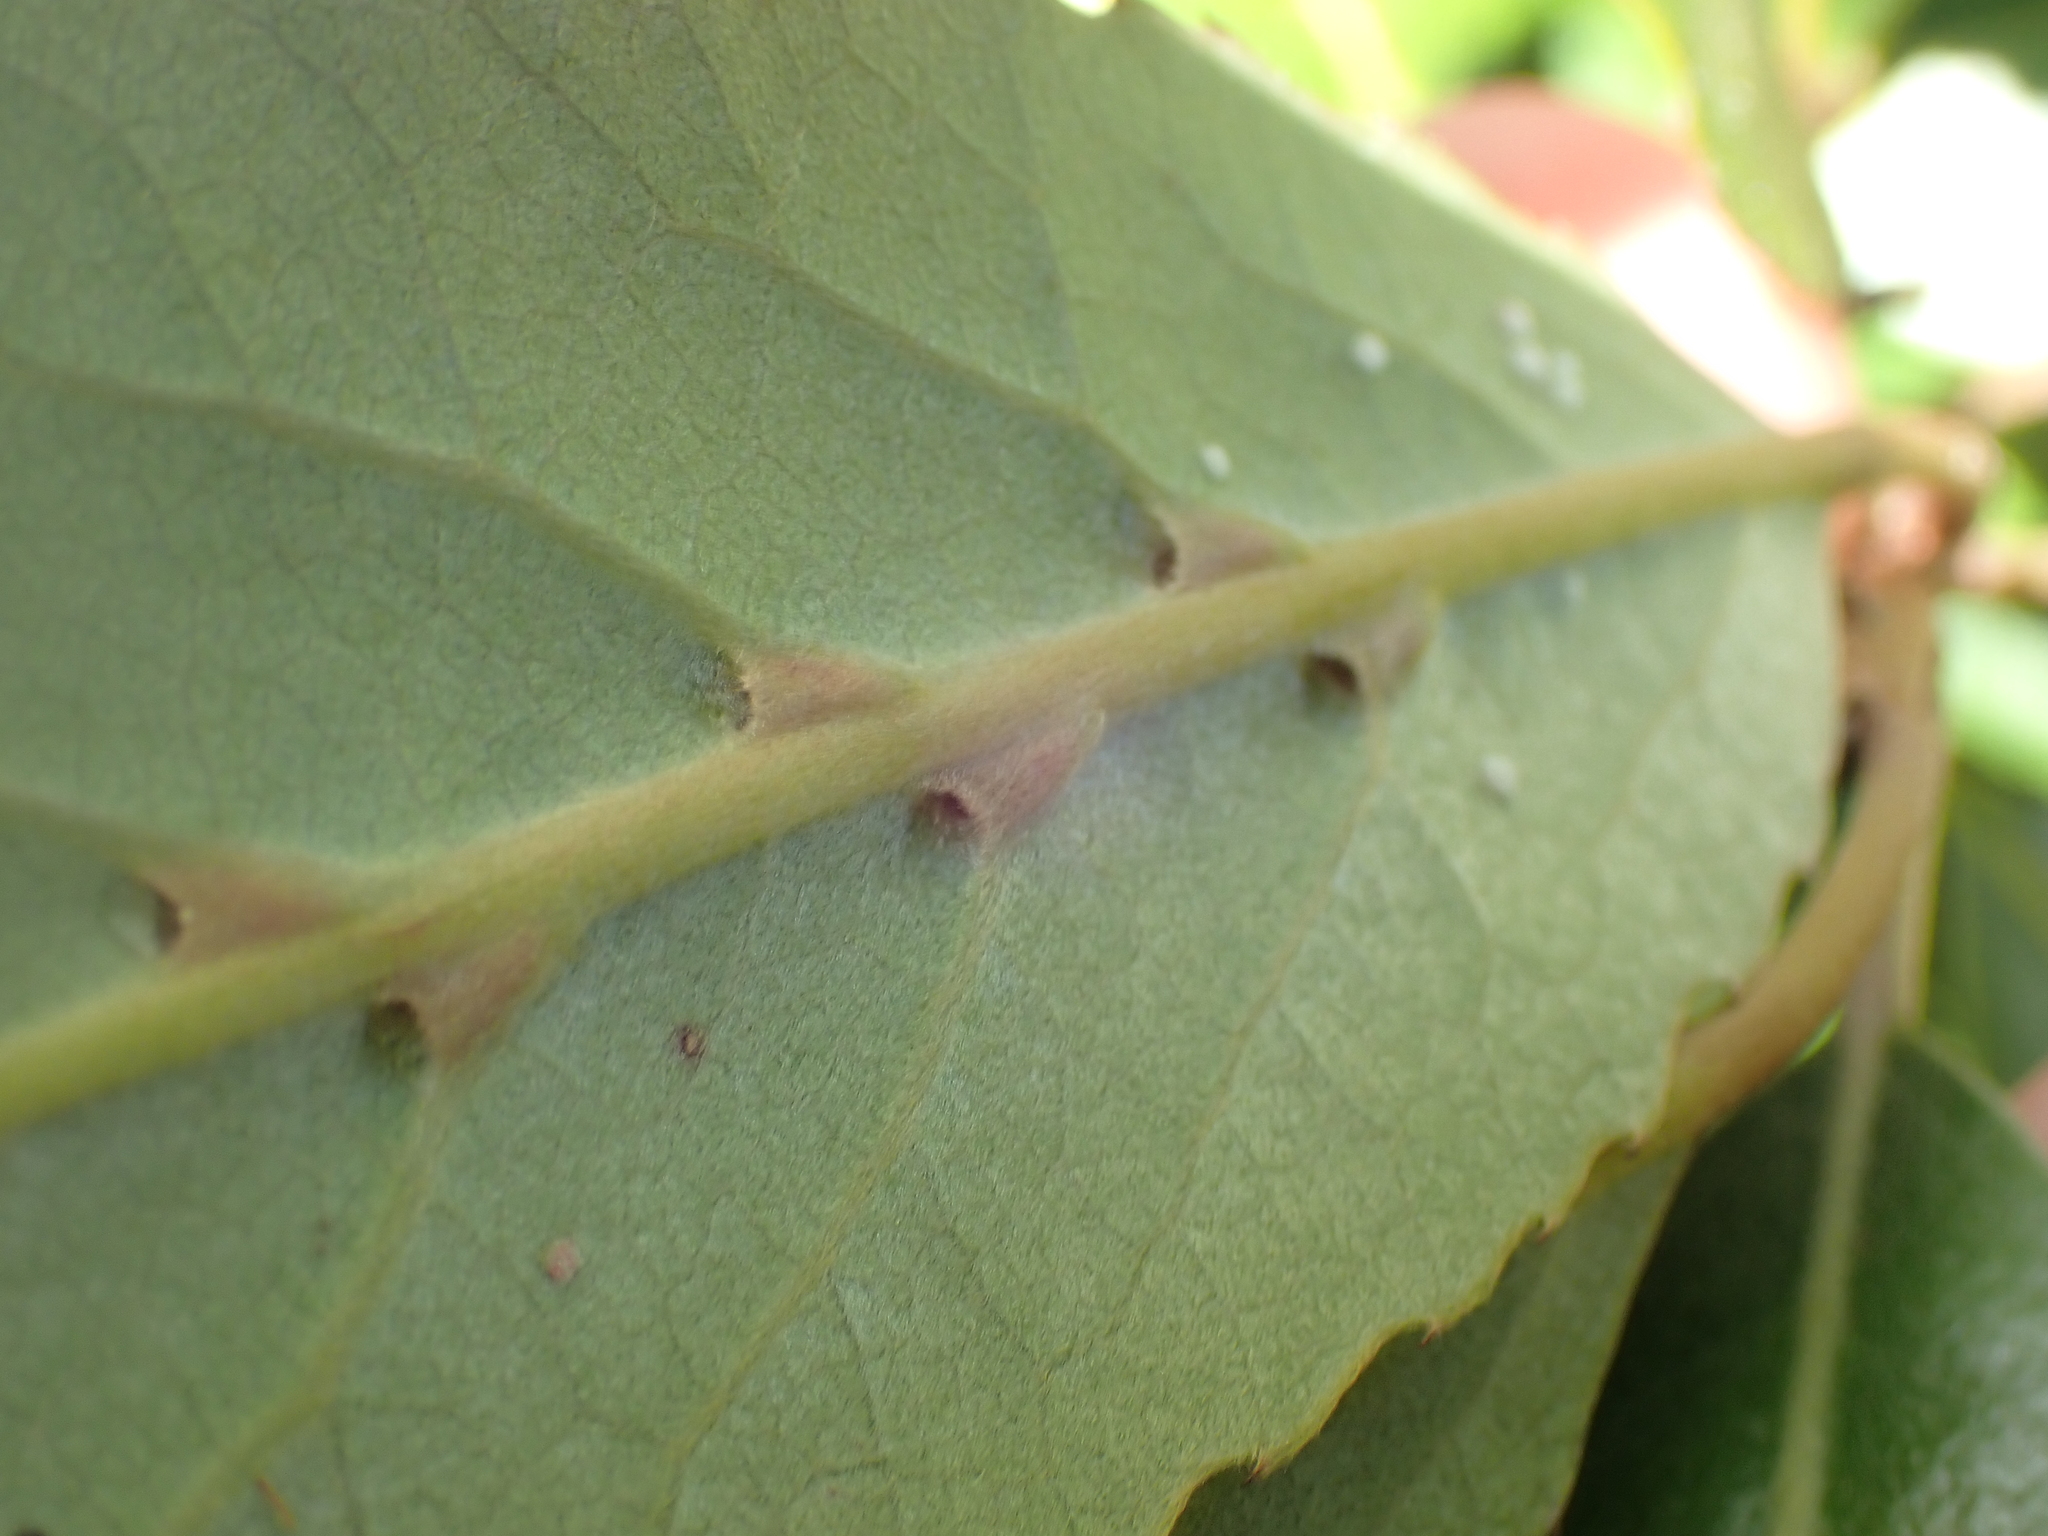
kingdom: Plantae
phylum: Tracheophyta
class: Magnoliopsida
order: Oxalidales
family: Elaeocarpaceae
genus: Elaeocarpus
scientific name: Elaeocarpus dentatus
